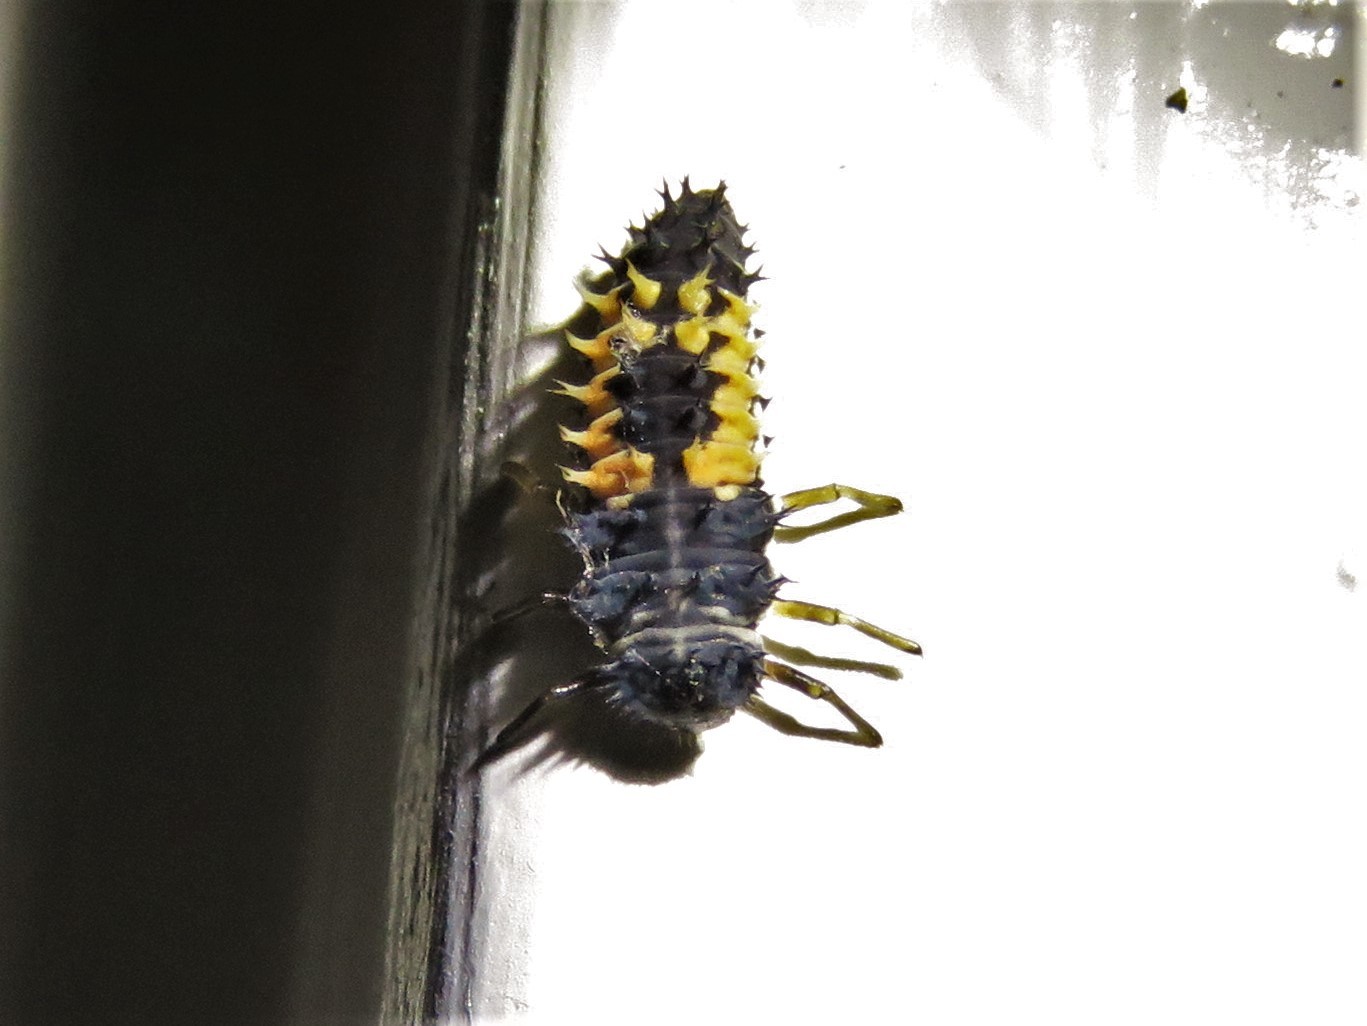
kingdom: Animalia
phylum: Arthropoda
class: Insecta
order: Coleoptera
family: Coccinellidae
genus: Harmonia
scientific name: Harmonia axyridis
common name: Harlequin ladybird
